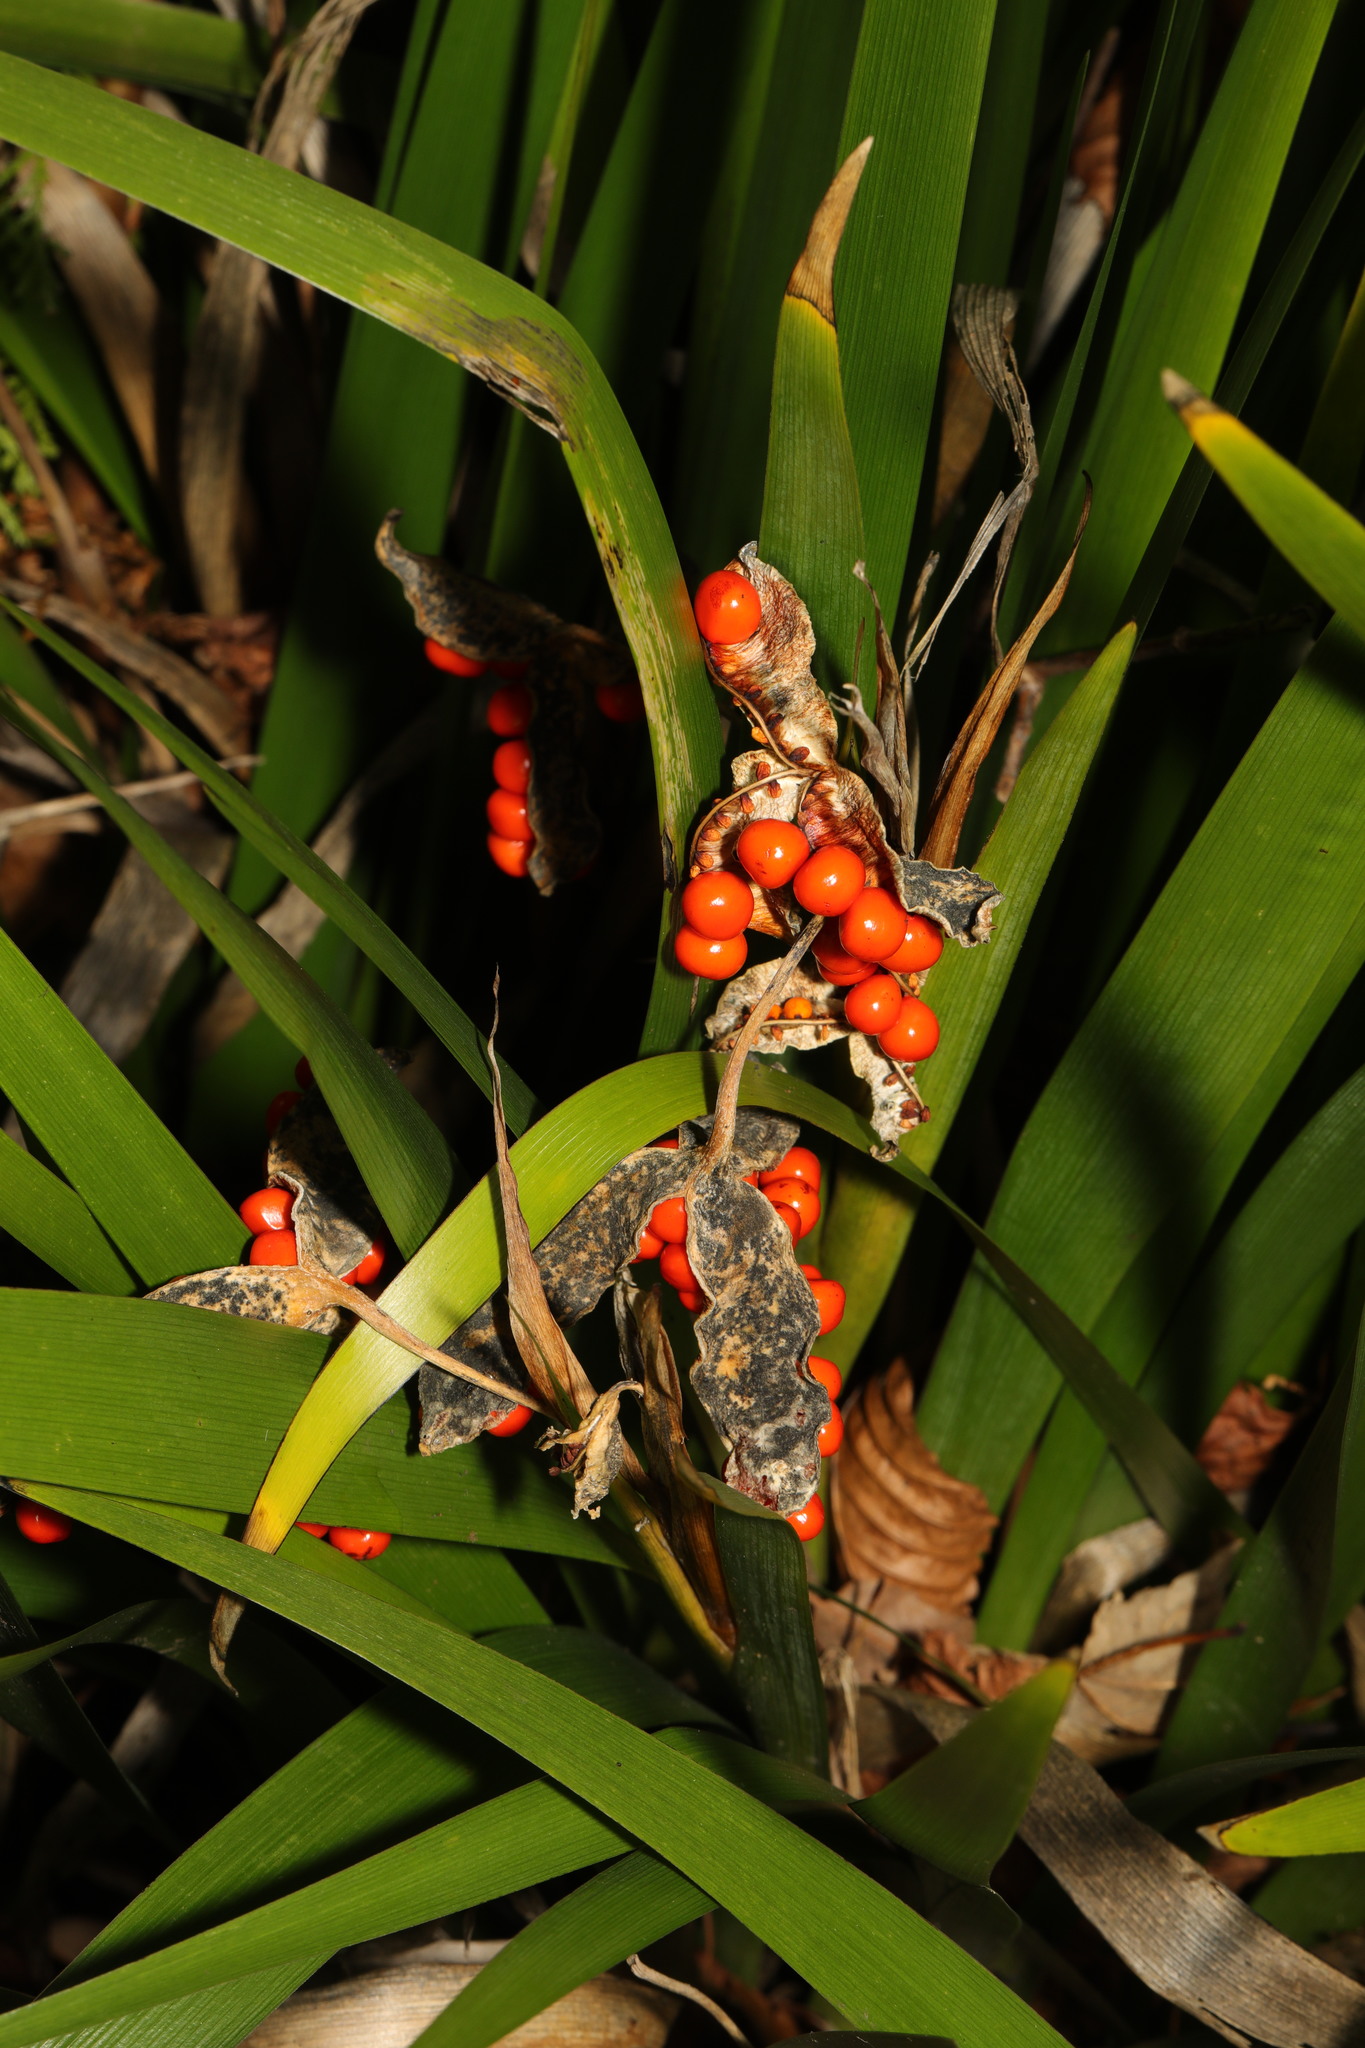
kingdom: Plantae
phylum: Tracheophyta
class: Liliopsida
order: Asparagales
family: Iridaceae
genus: Iris
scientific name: Iris foetidissima
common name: Stinking iris
